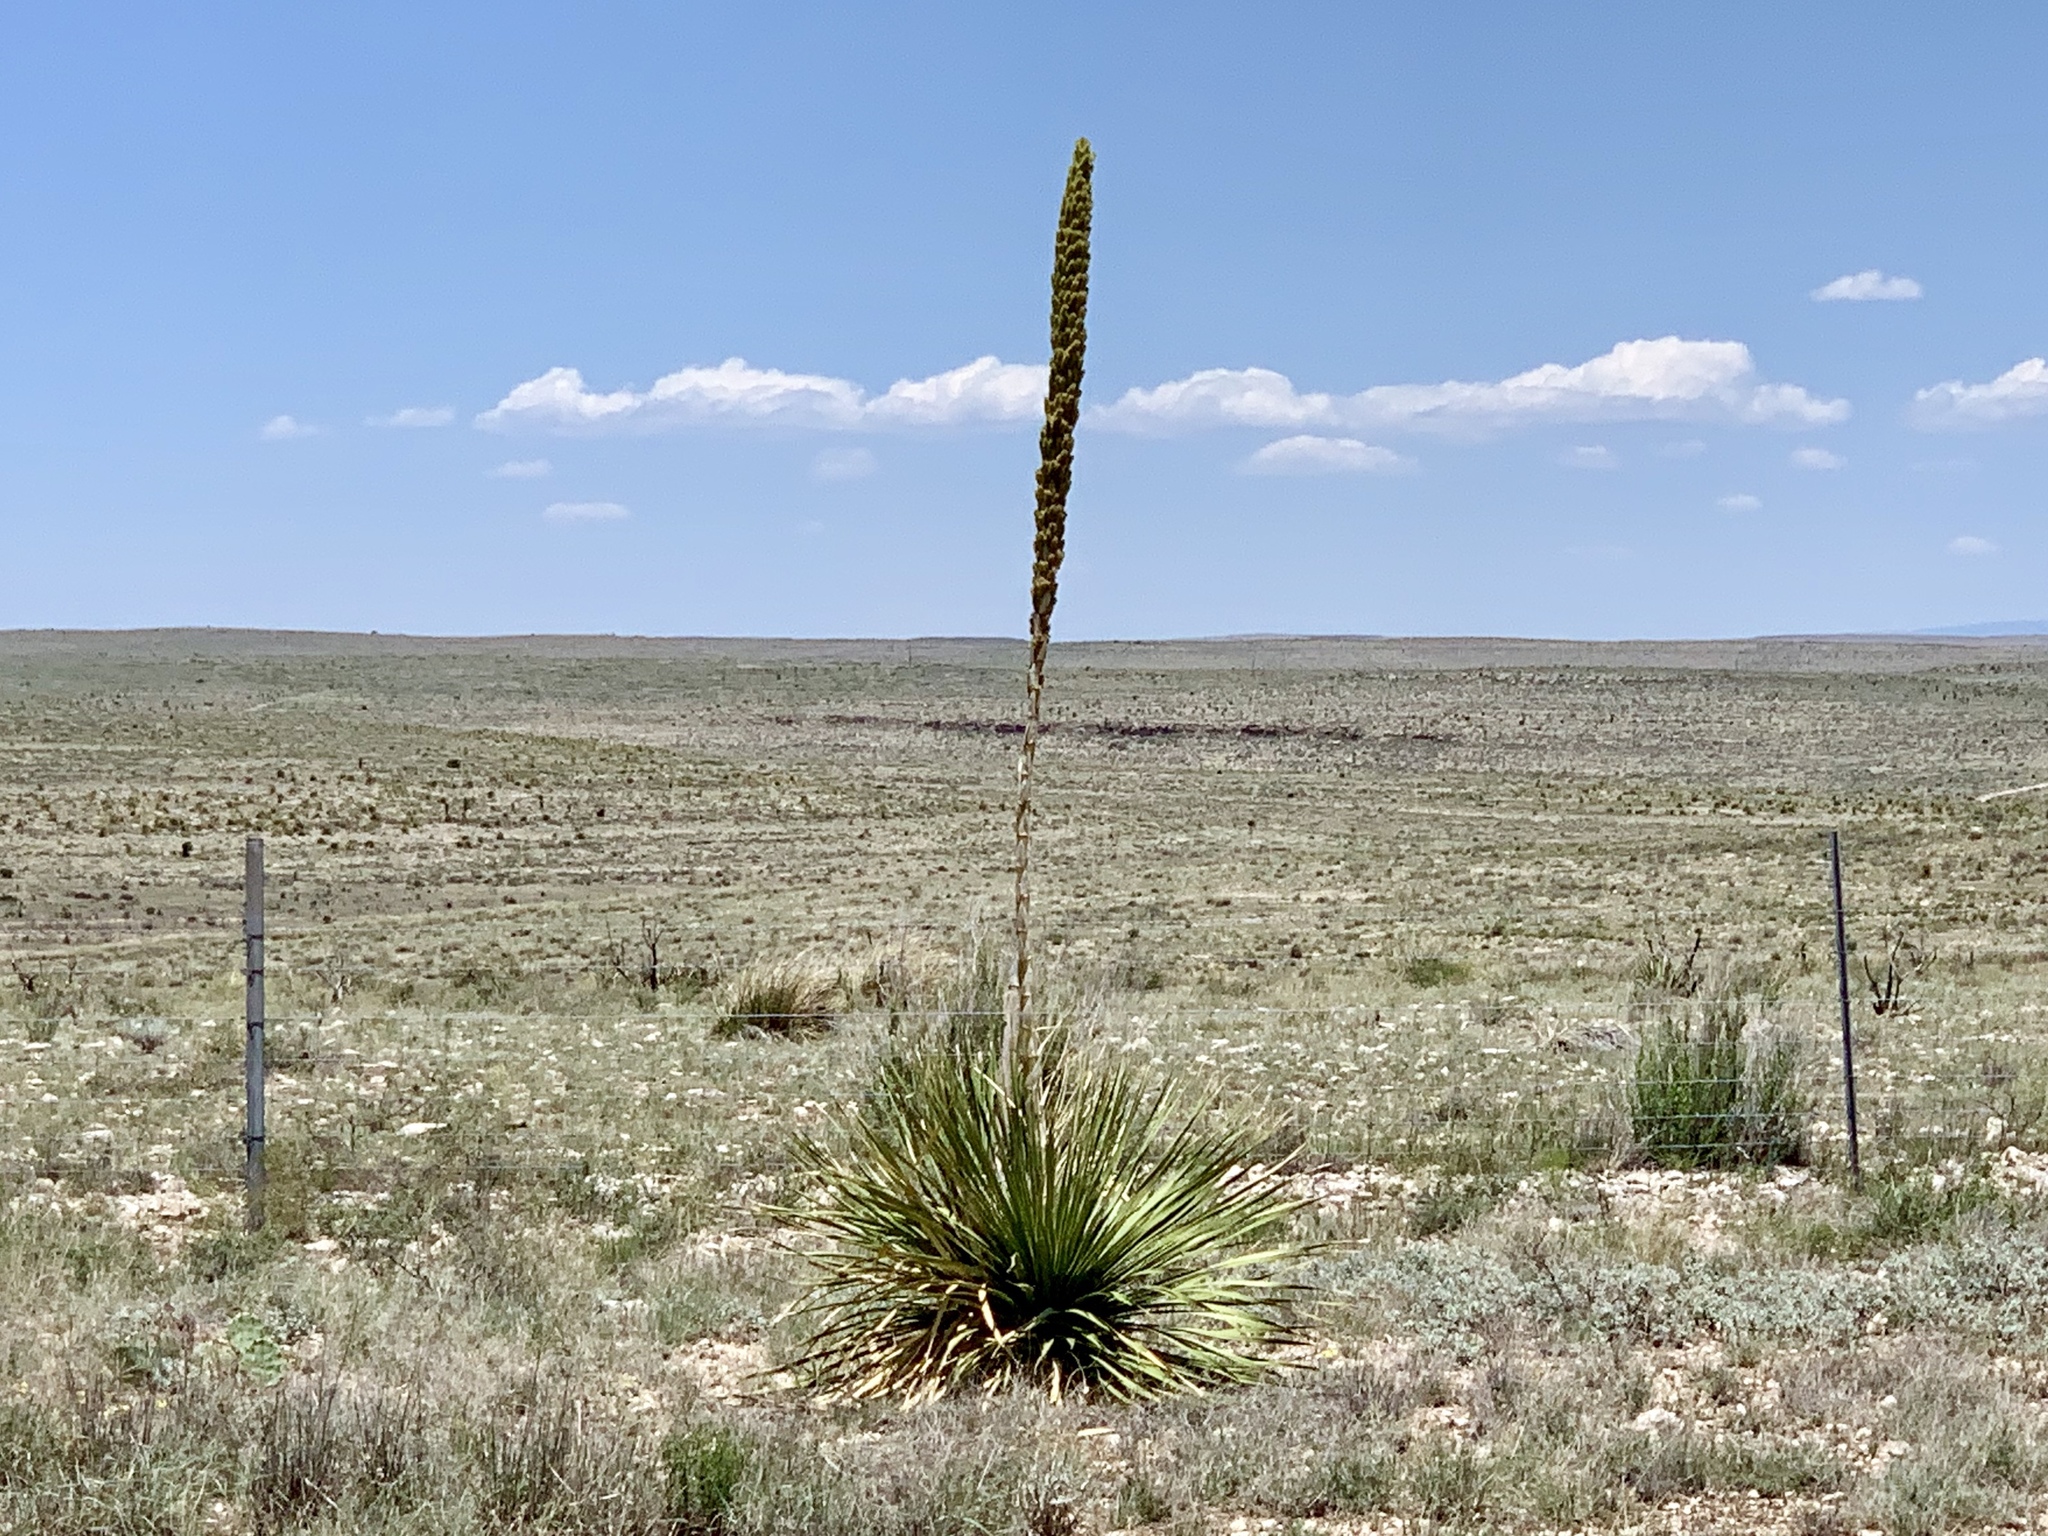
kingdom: Plantae
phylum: Tracheophyta
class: Liliopsida
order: Asparagales
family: Asparagaceae
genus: Dasylirion
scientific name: Dasylirion leiophyllum
